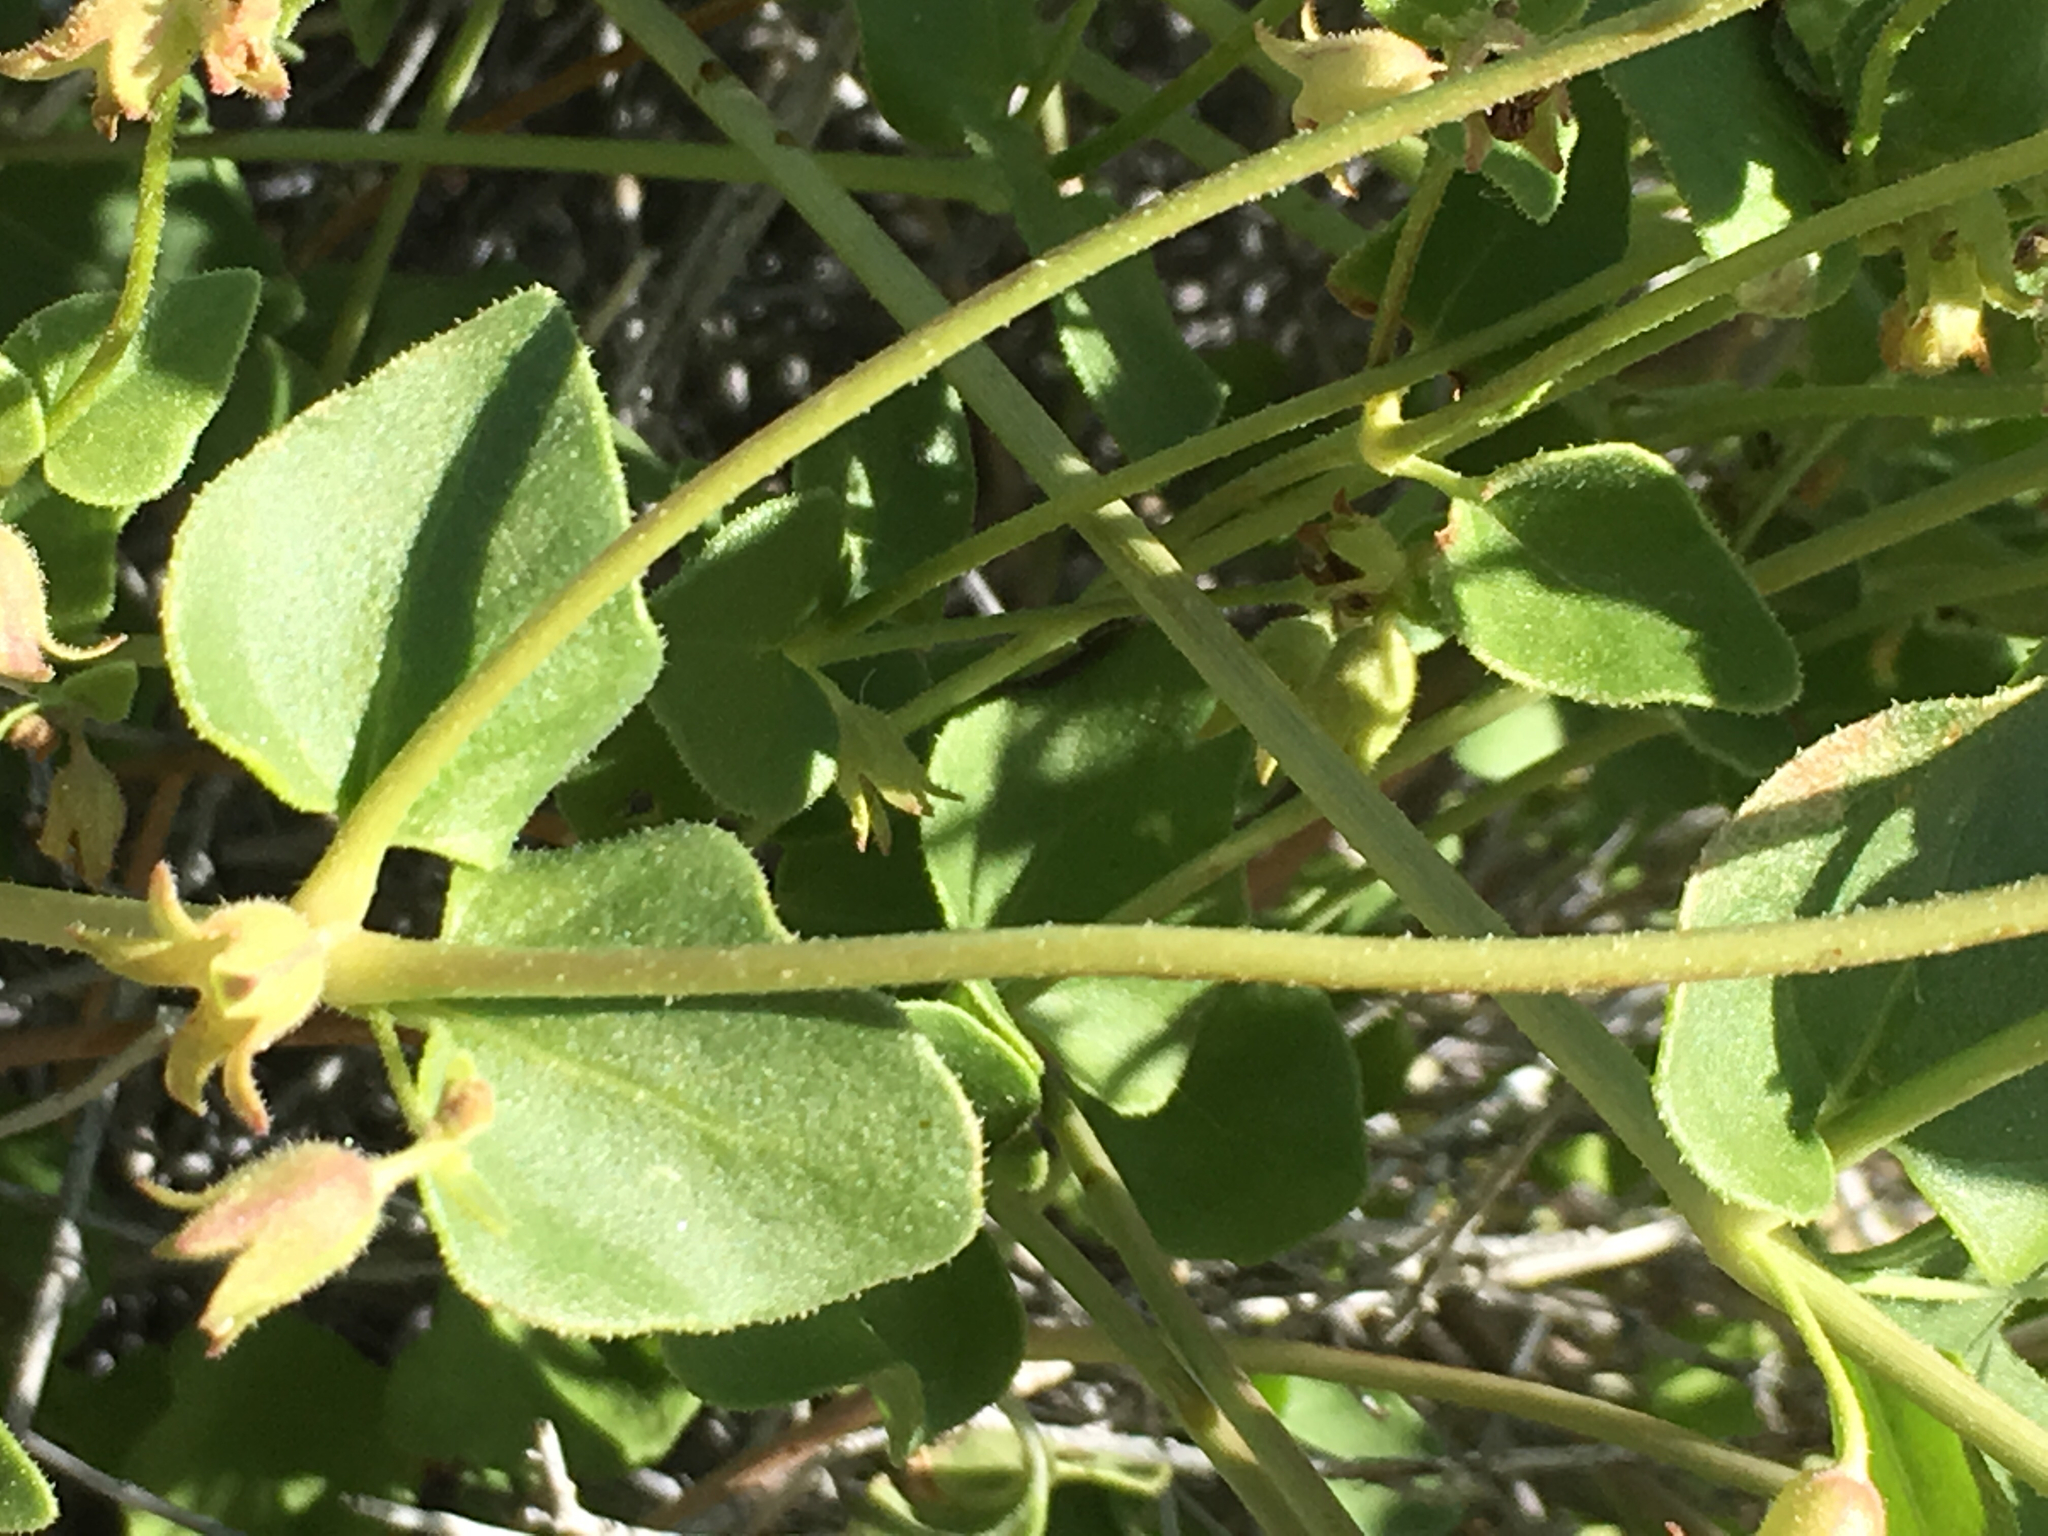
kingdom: Plantae
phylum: Tracheophyta
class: Magnoliopsida
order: Caryophyllales
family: Nyctaginaceae
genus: Mirabilis
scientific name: Mirabilis laevis
